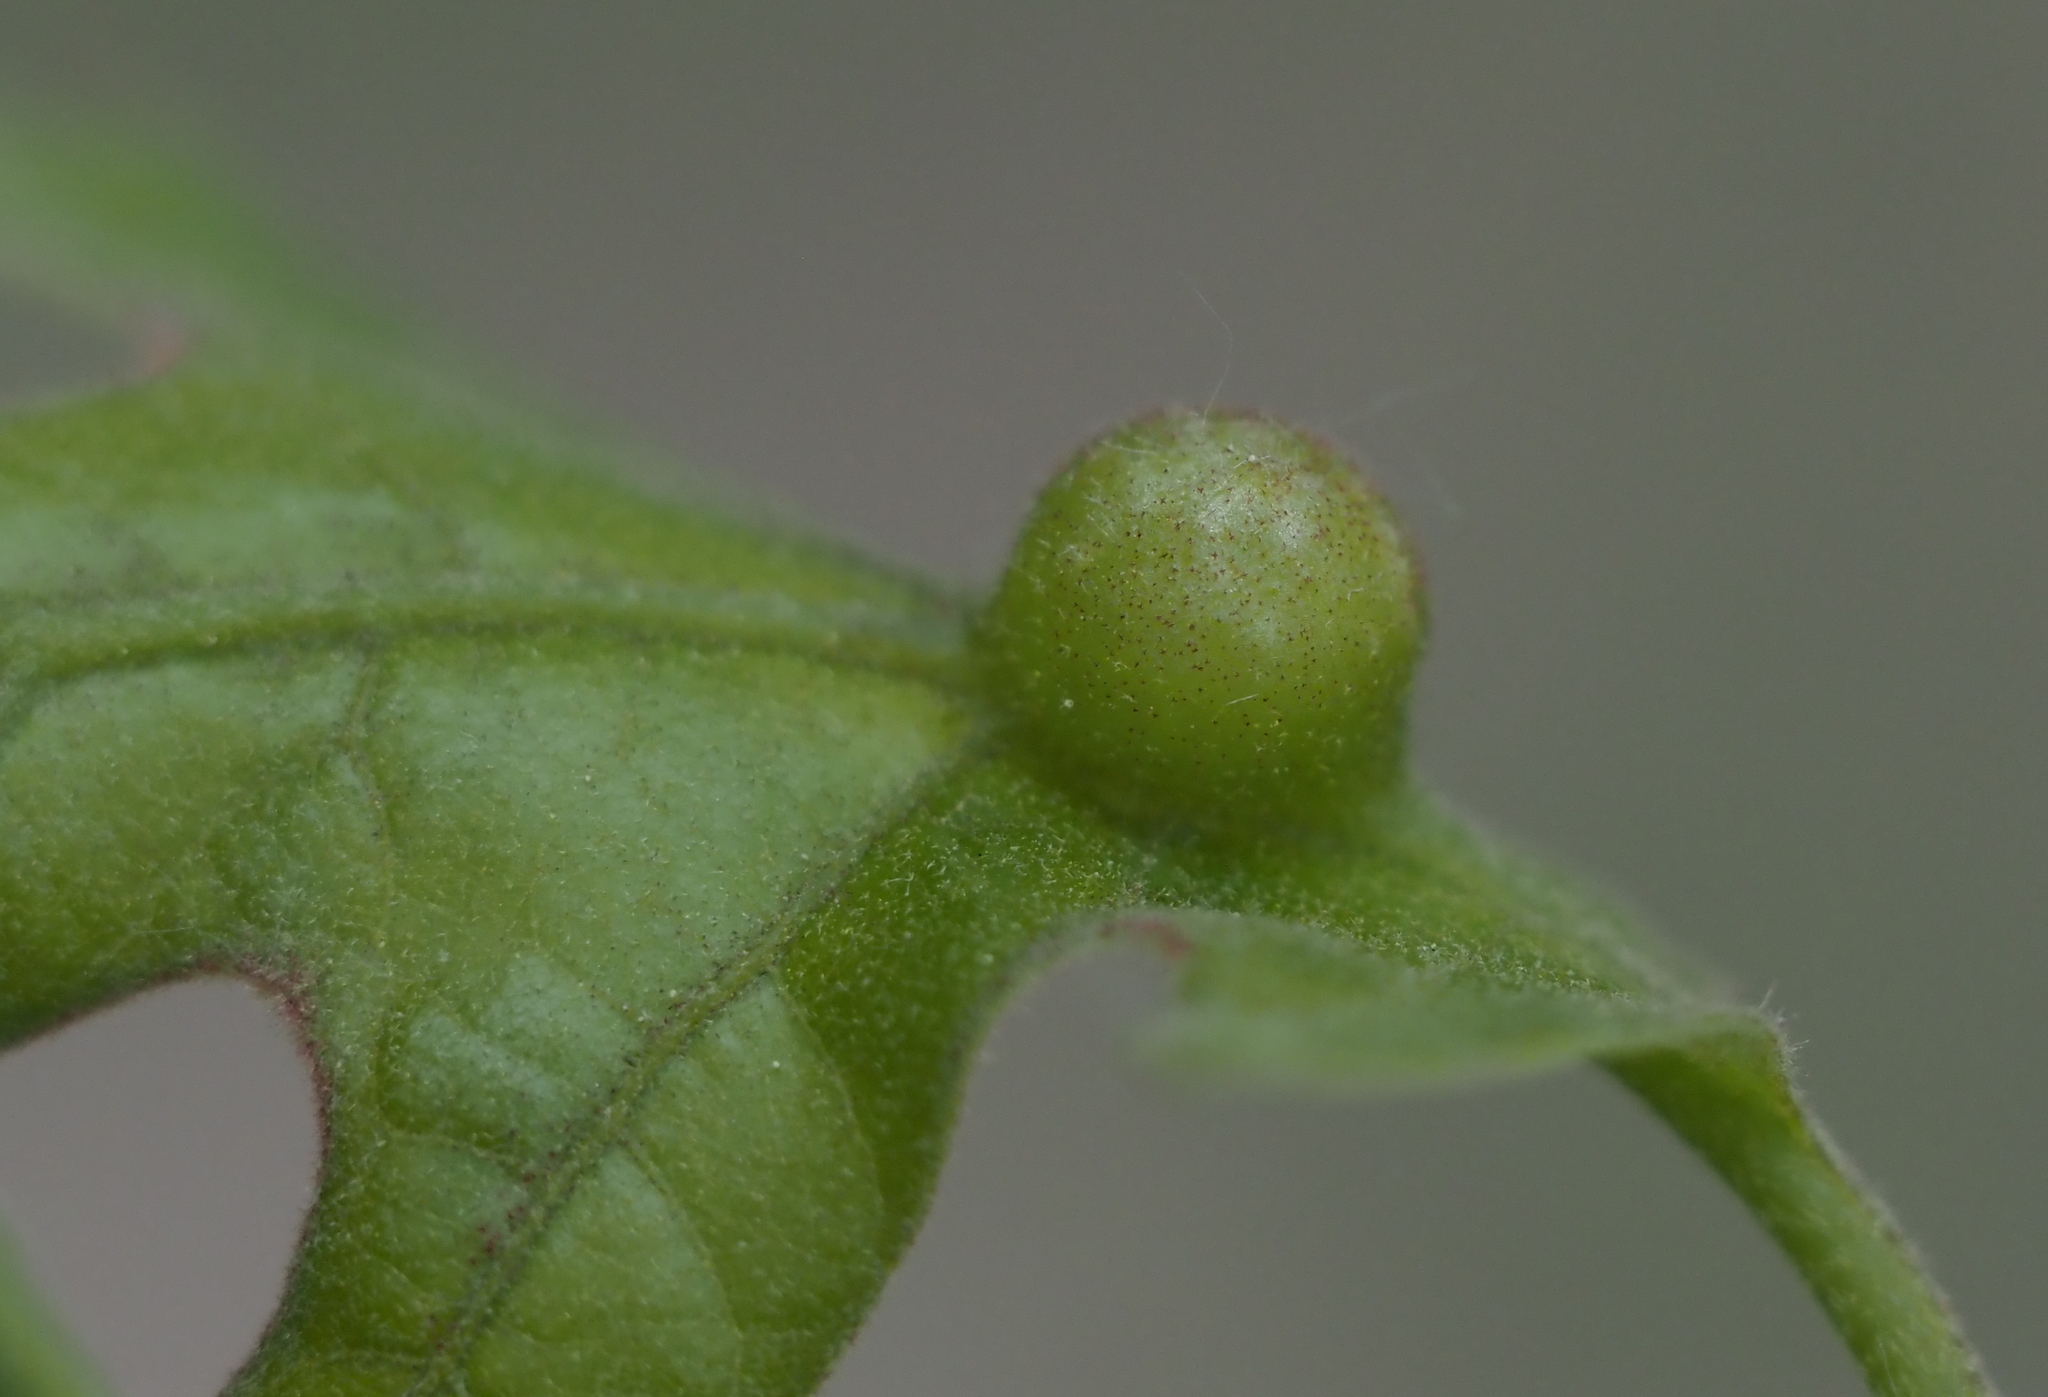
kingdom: Animalia
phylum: Arthropoda
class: Insecta
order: Hymenoptera
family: Cynipidae
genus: Dryocosmus
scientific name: Dryocosmus quercuspalustris
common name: Succulent oak gall wasp
